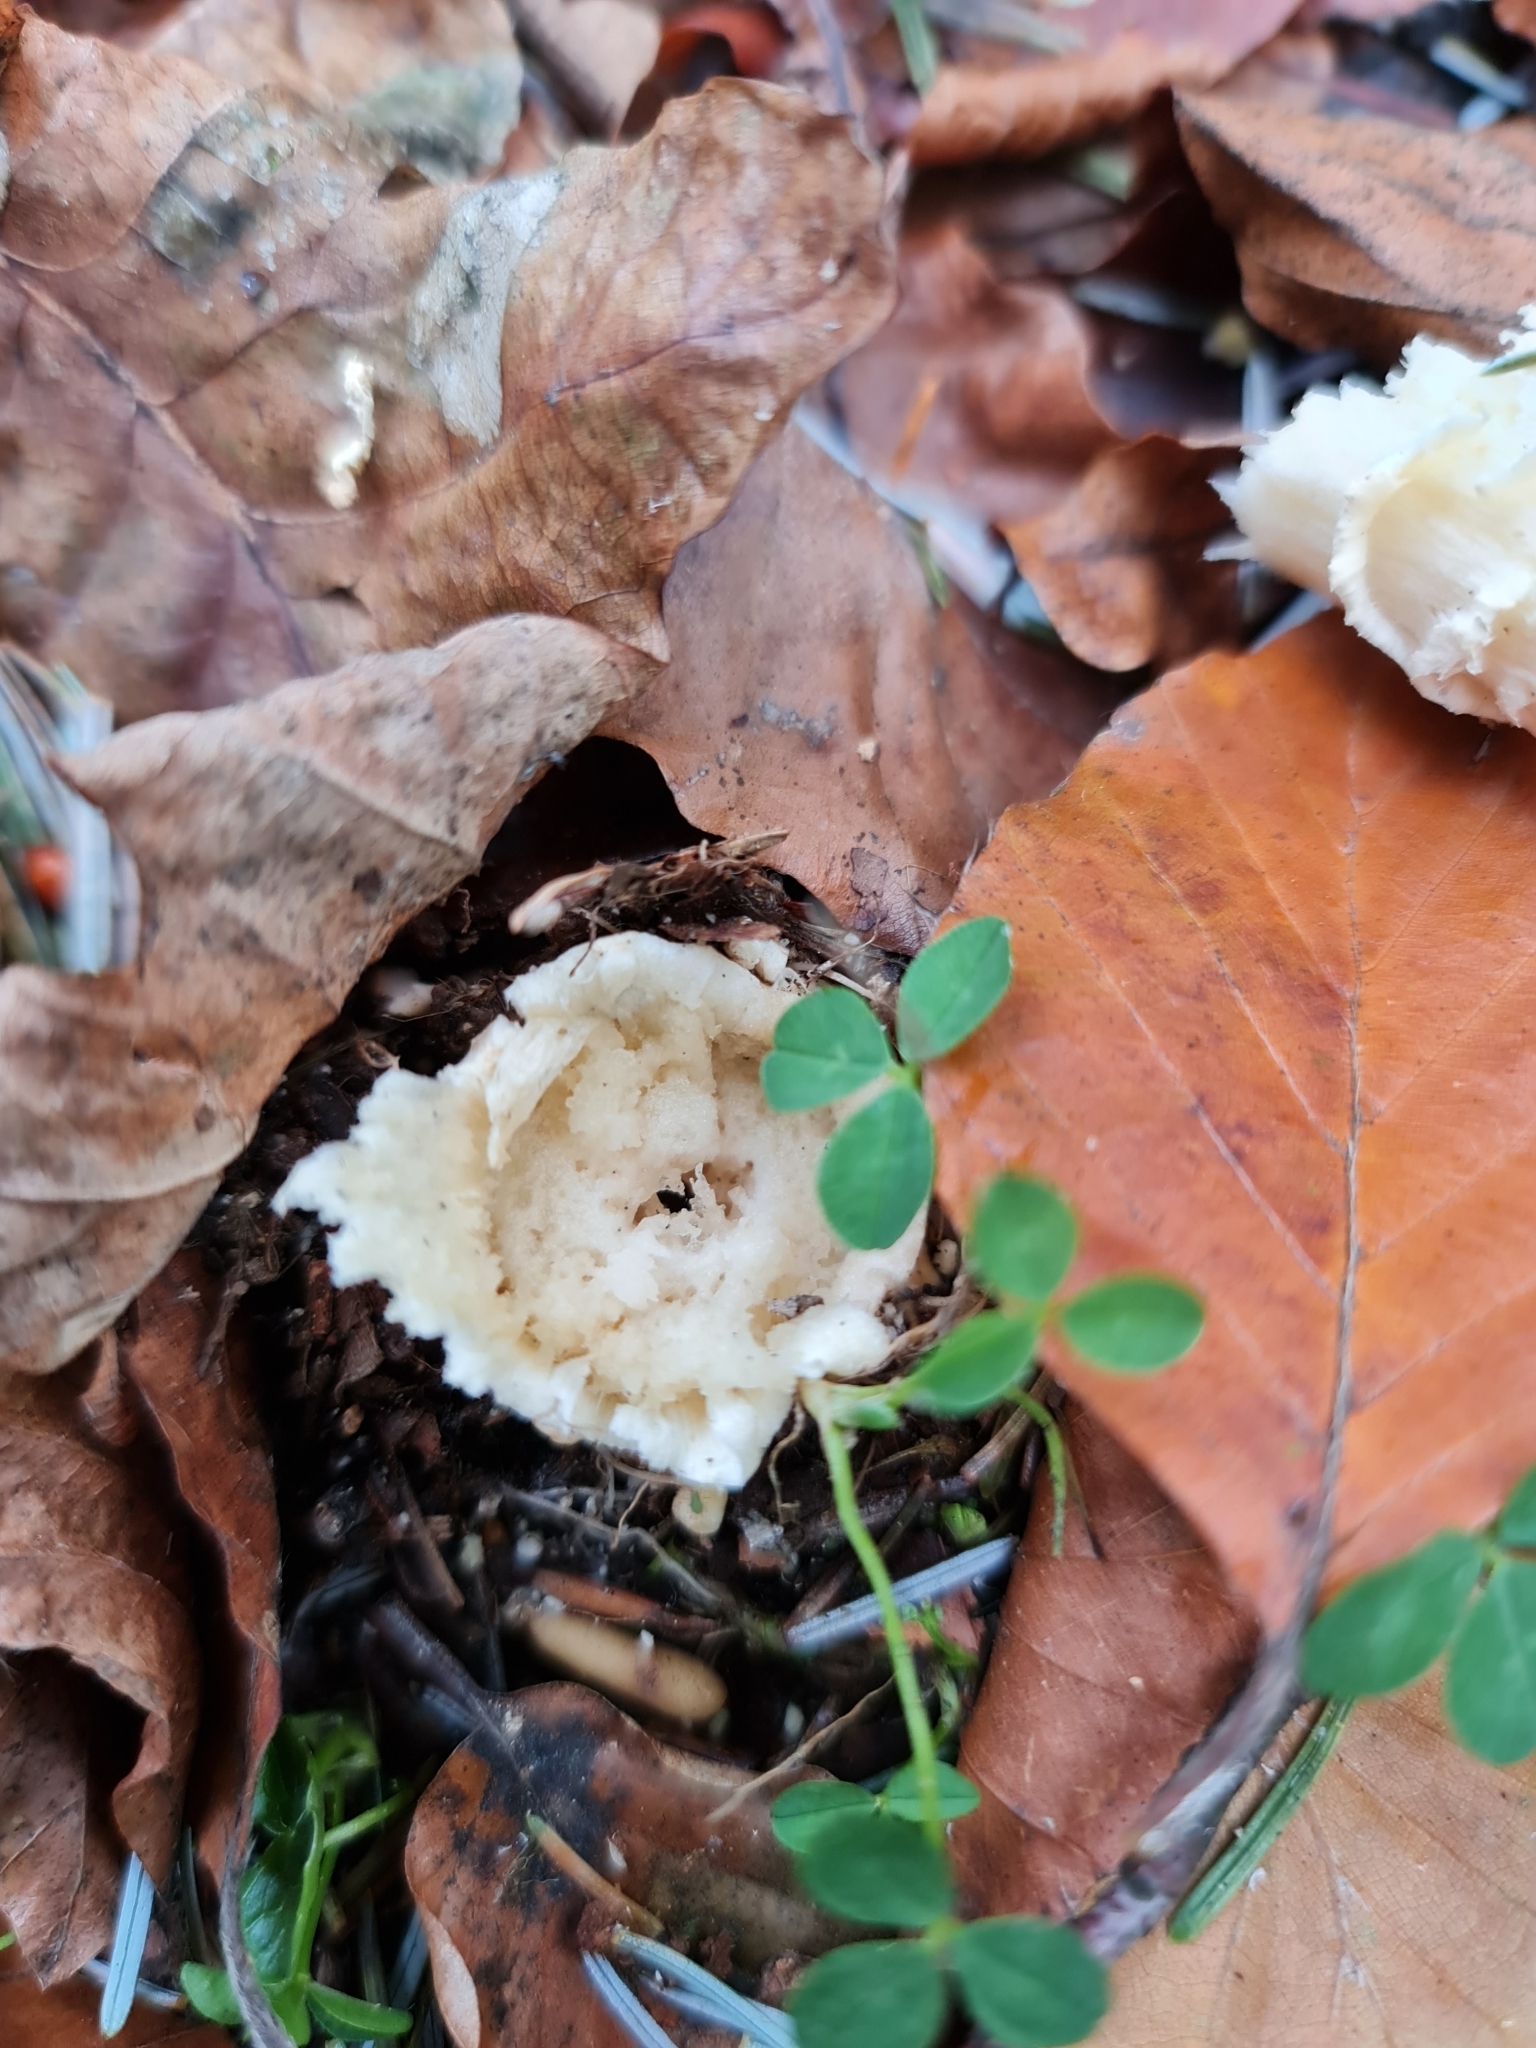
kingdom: Fungi
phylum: Basidiomycota
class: Agaricomycetes
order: Agaricales
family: Amanitaceae
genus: Amanita
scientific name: Amanita muscaria
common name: Fly agaric
